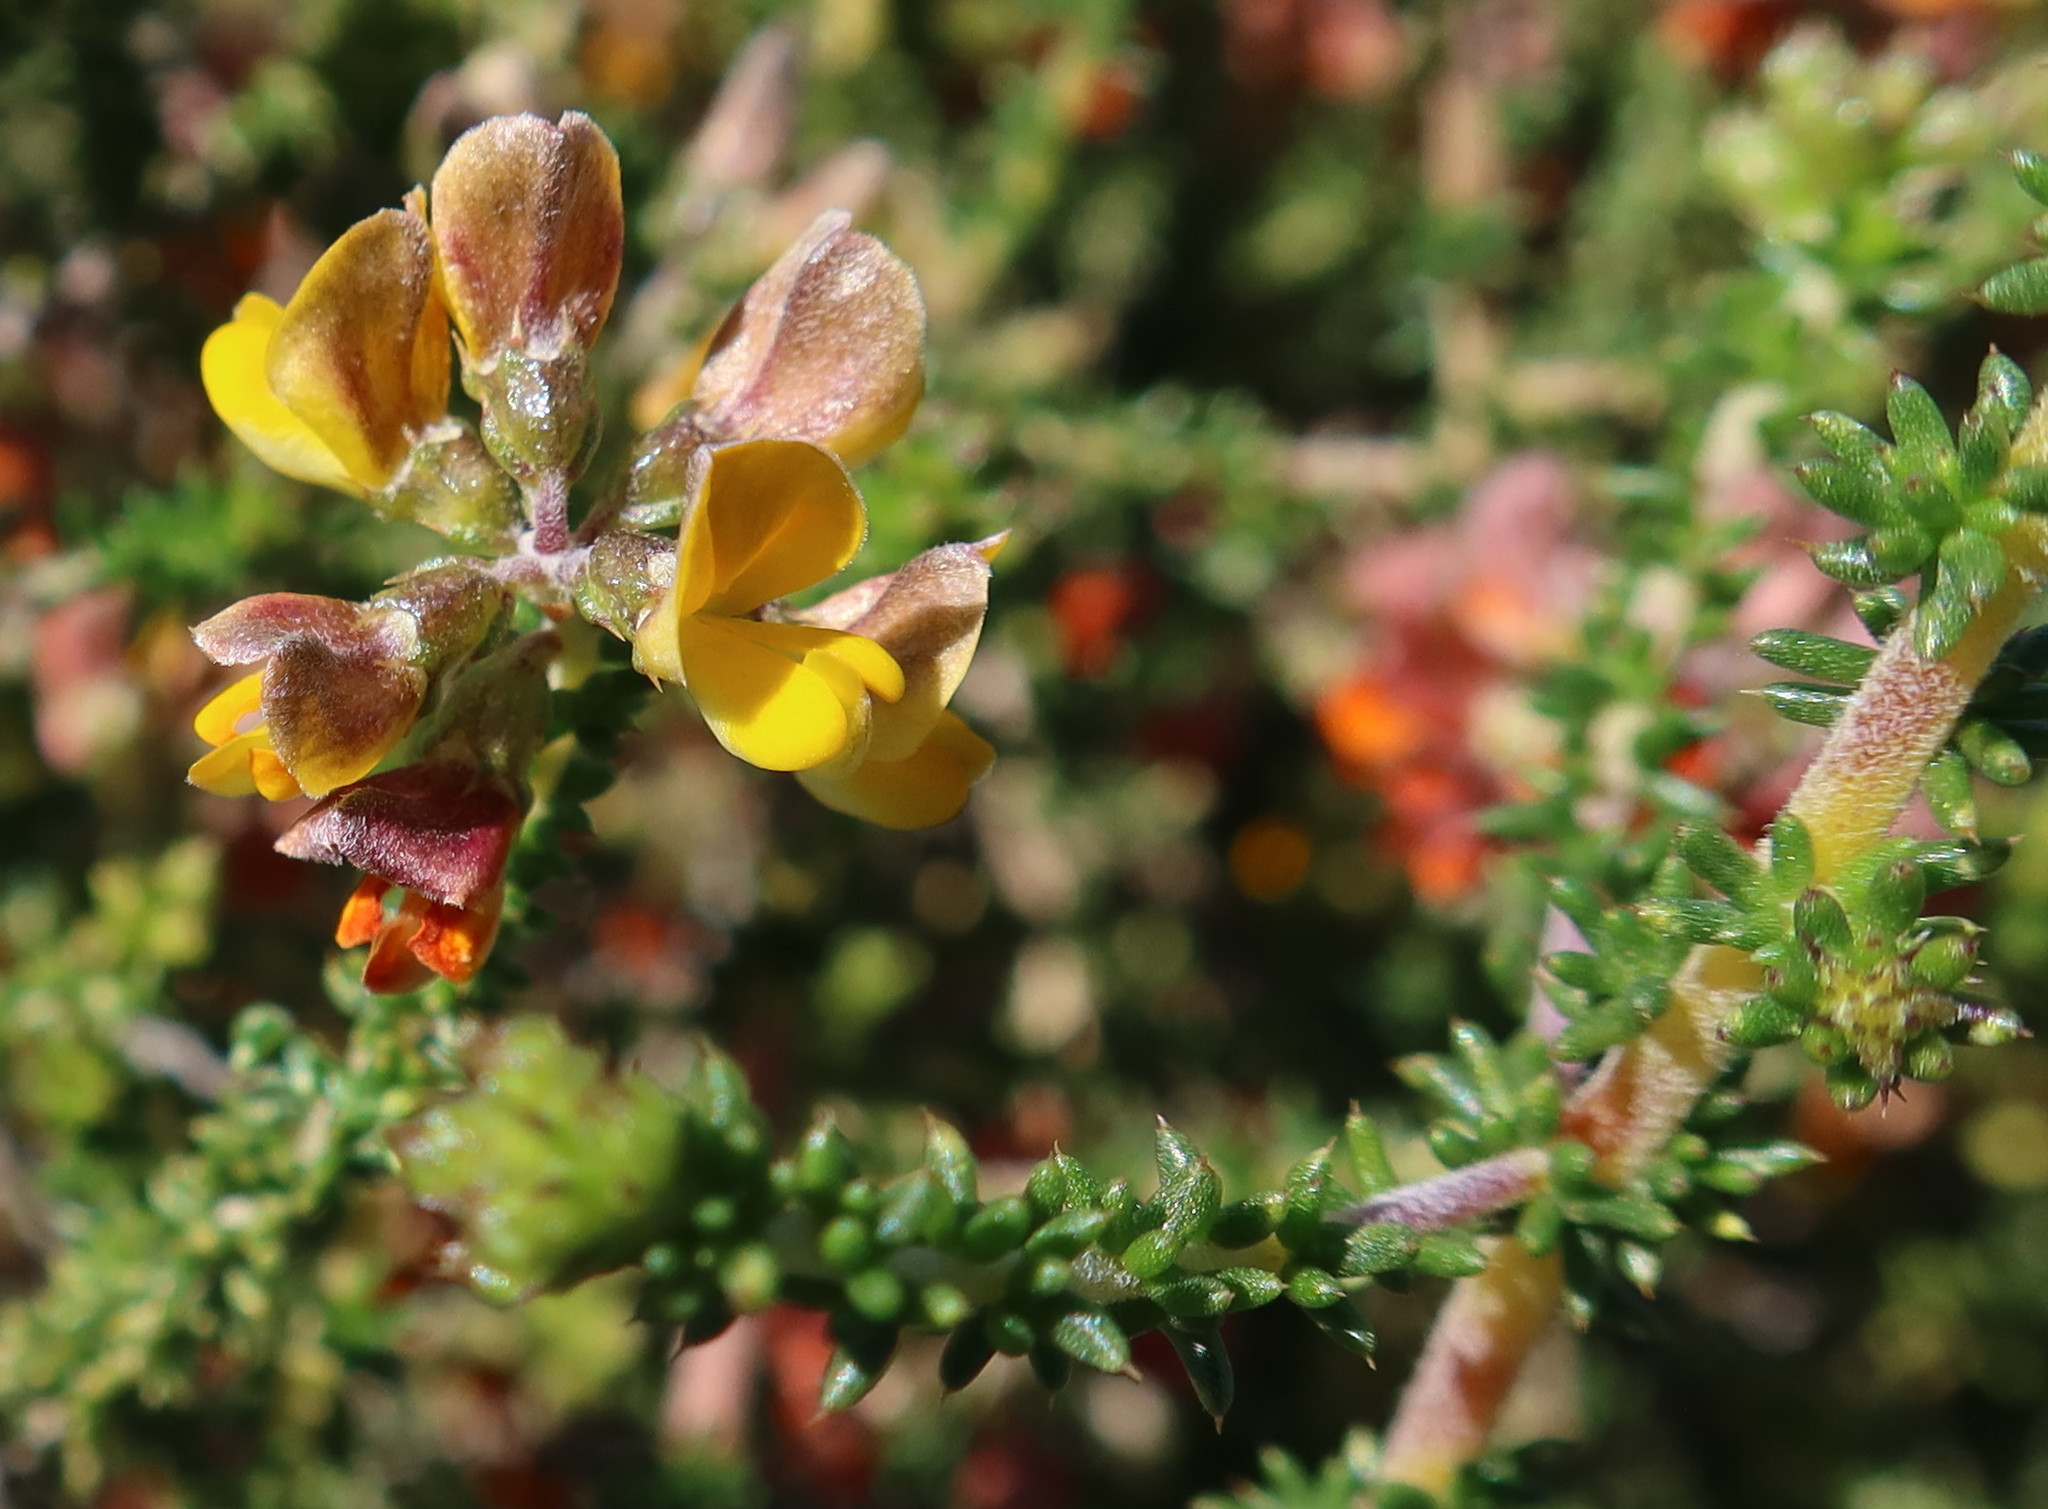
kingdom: Plantae
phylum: Tracheophyta
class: Magnoliopsida
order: Fabales
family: Fabaceae
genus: Aspalathus
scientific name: Aspalathus divaricata
